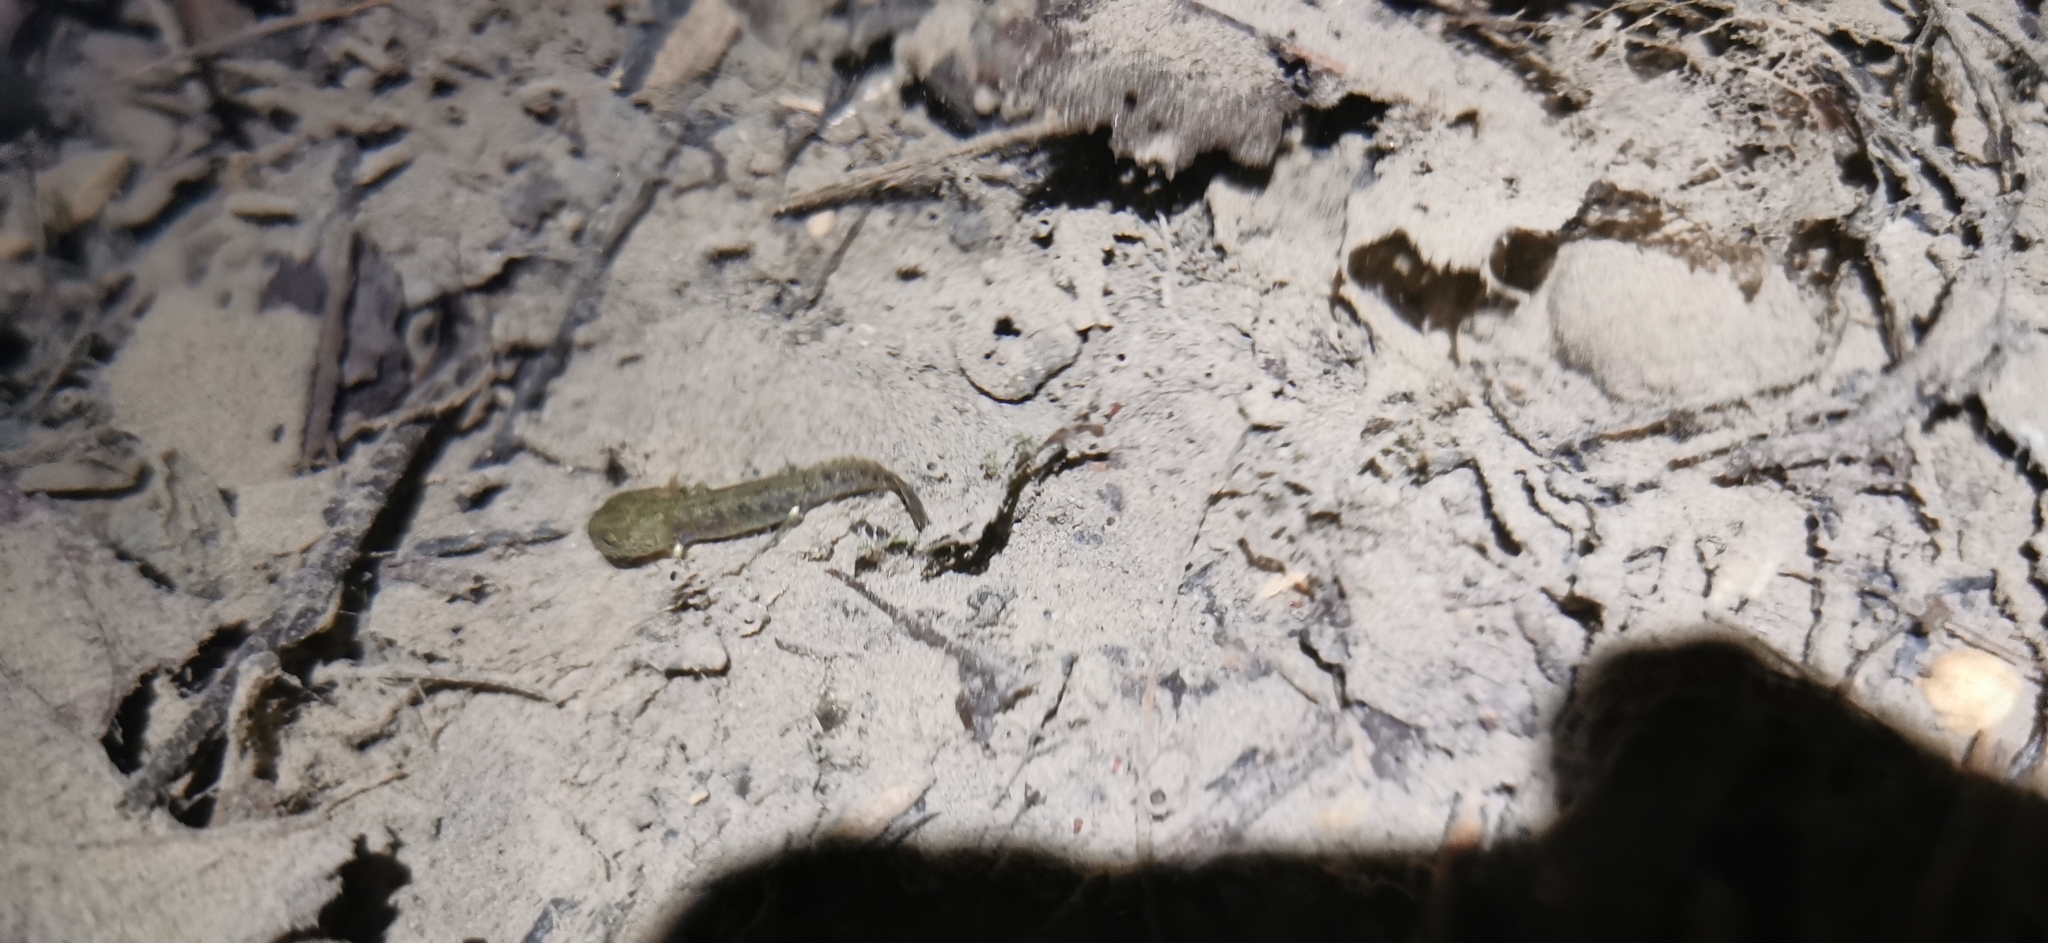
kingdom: Animalia
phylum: Chordata
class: Amphibia
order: Caudata
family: Salamandridae
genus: Salamandra
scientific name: Salamandra salamandra
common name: Fire salamander
